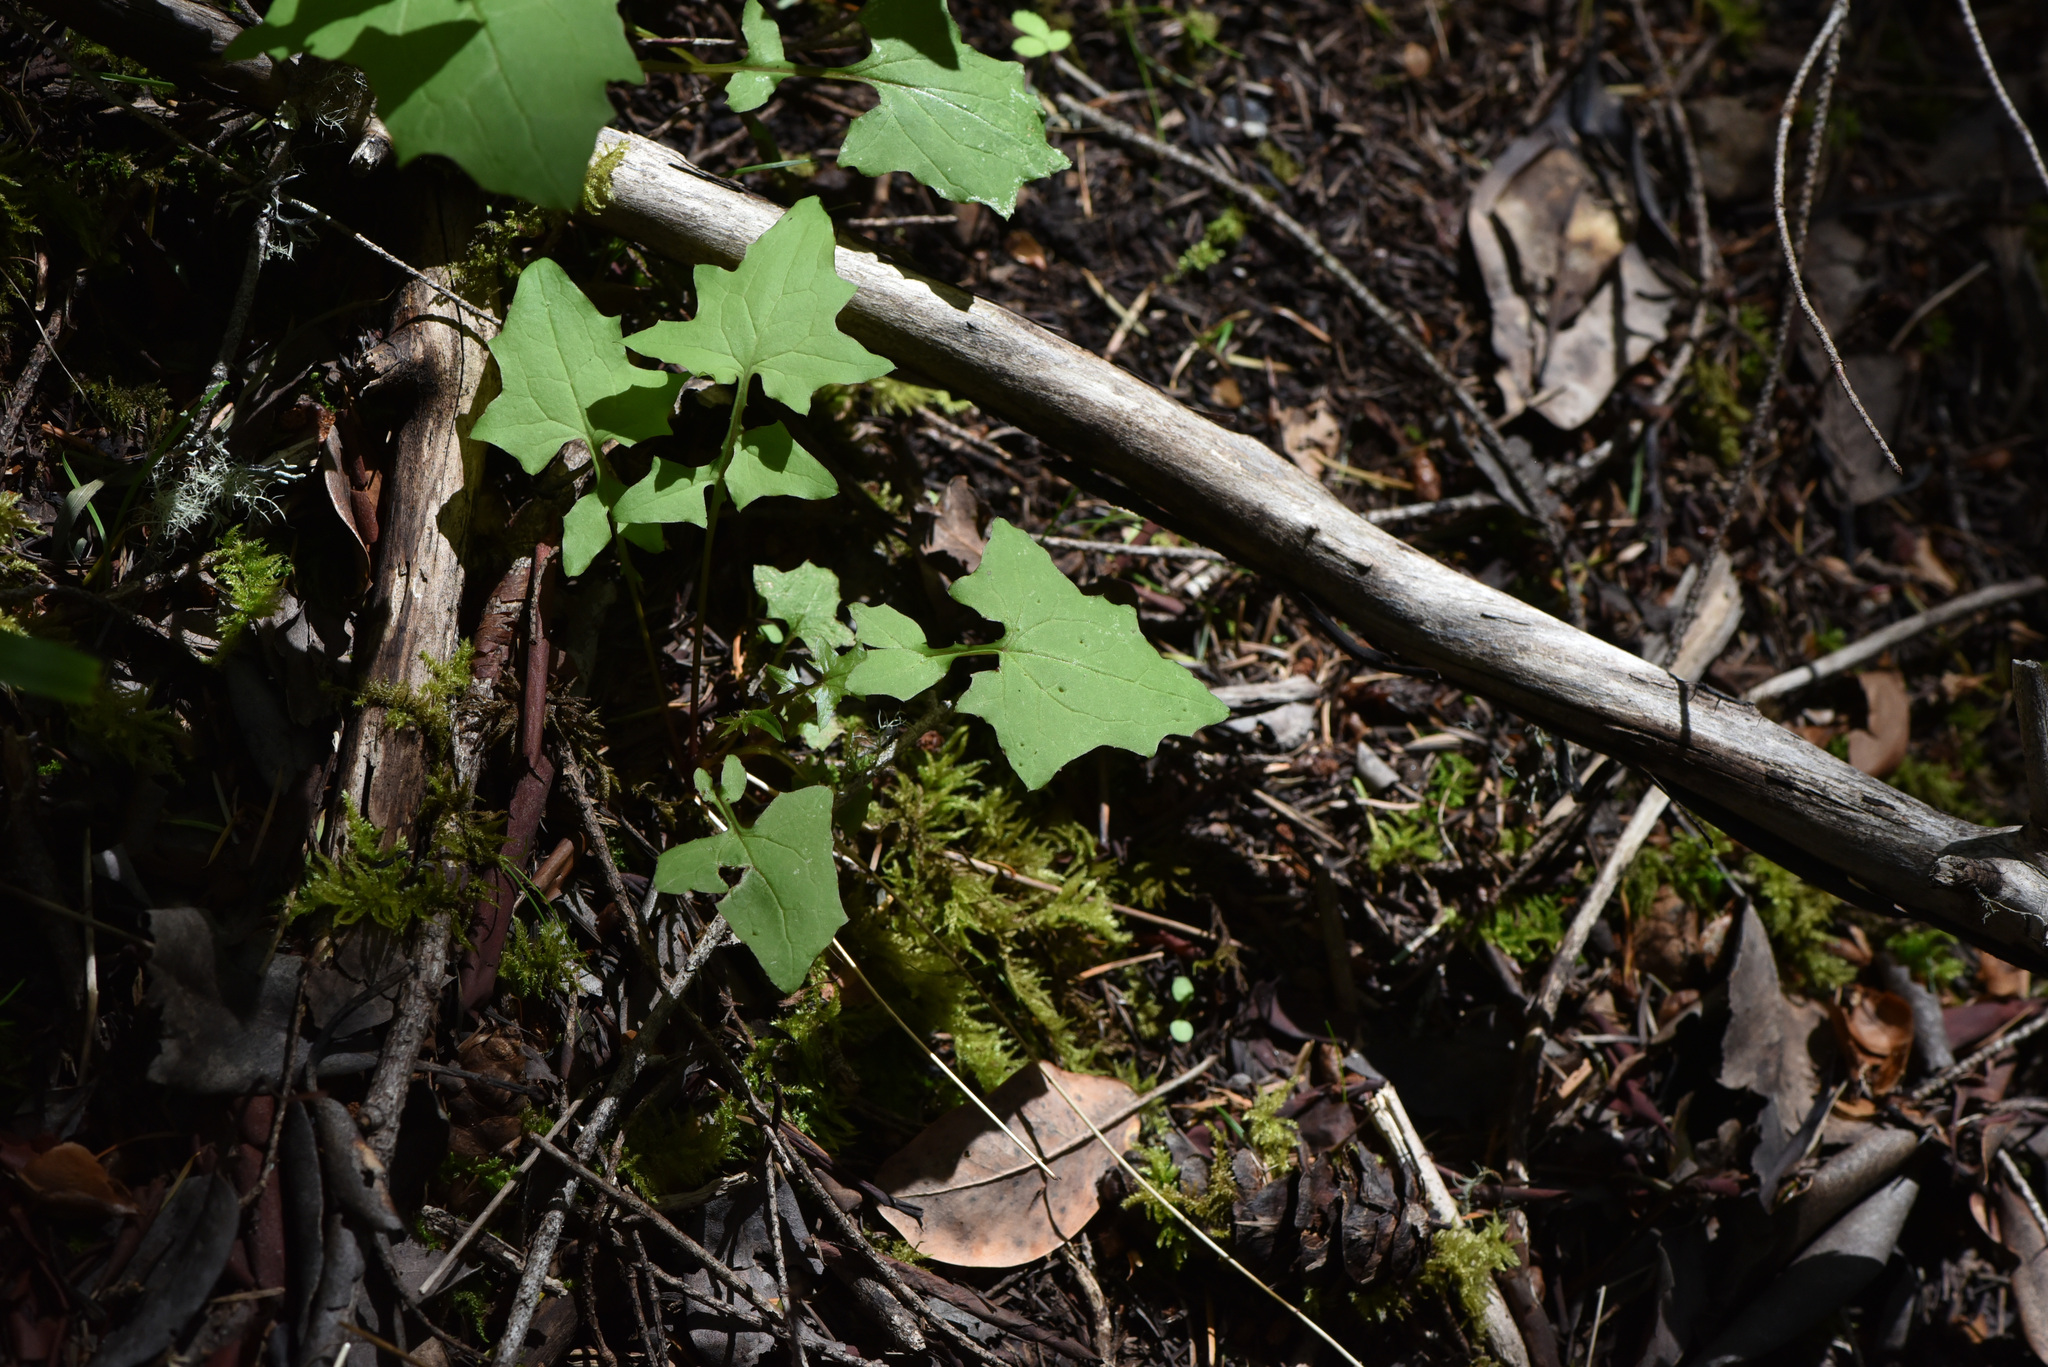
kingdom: Plantae
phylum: Tracheophyta
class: Magnoliopsida
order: Asterales
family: Asteraceae
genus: Mycelis
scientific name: Mycelis muralis
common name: Wall lettuce
